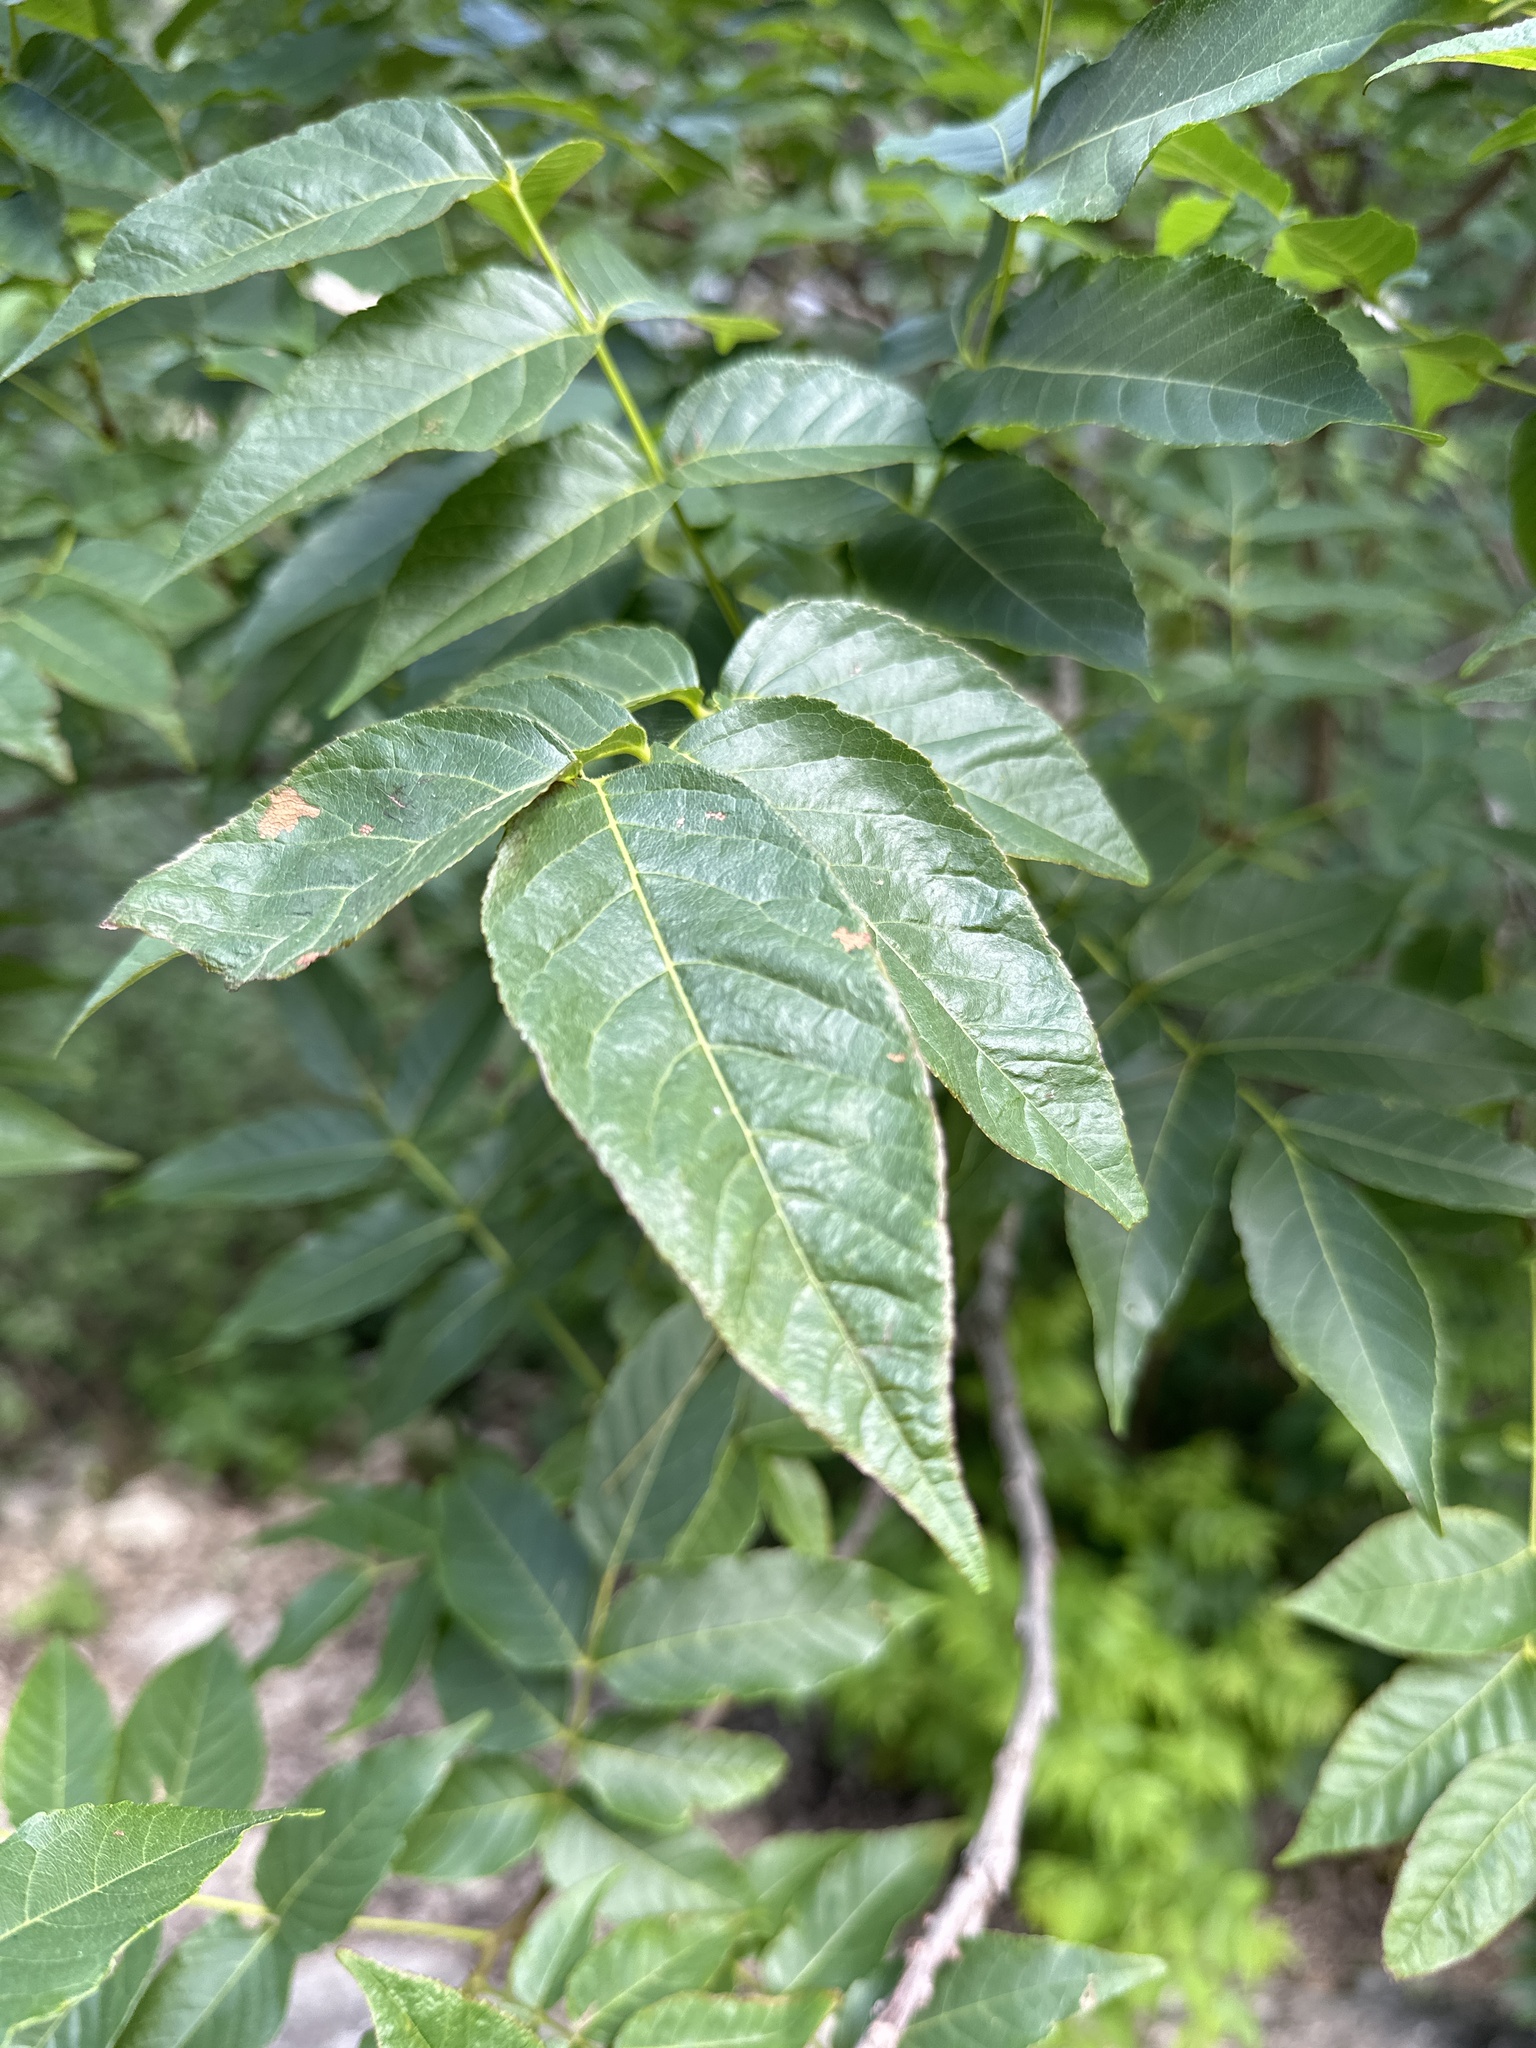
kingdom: Plantae
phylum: Tracheophyta
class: Magnoliopsida
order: Sapindales
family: Sapindaceae
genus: Ungnadia
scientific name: Ungnadia speciosa
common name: Texas-buckeye
